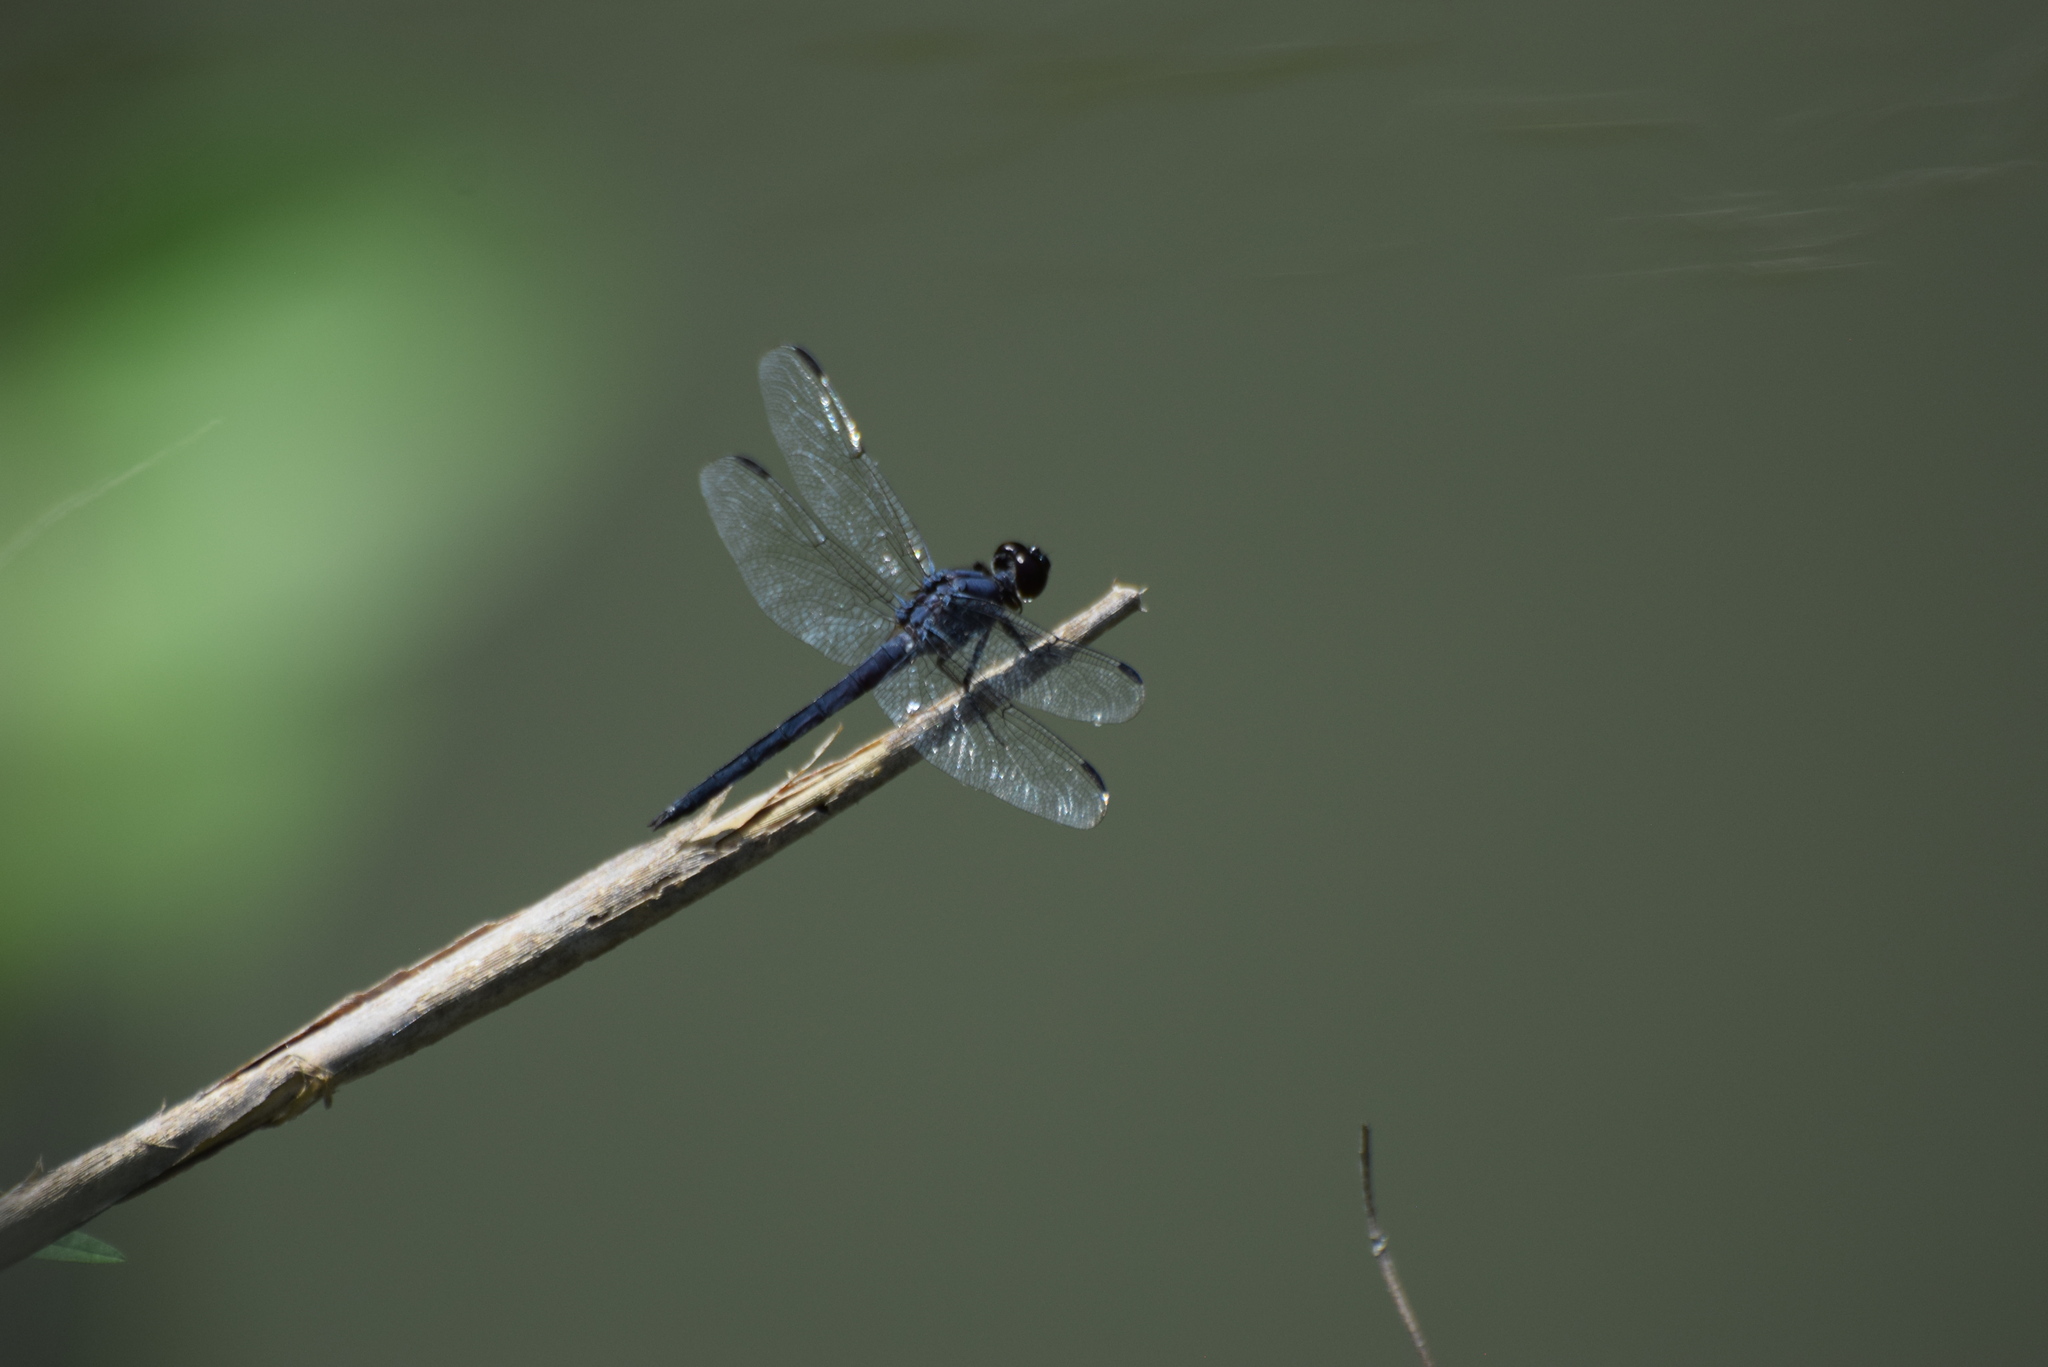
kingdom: Animalia
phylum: Arthropoda
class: Insecta
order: Odonata
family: Libellulidae
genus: Libellula
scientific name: Libellula incesta
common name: Slaty skimmer
